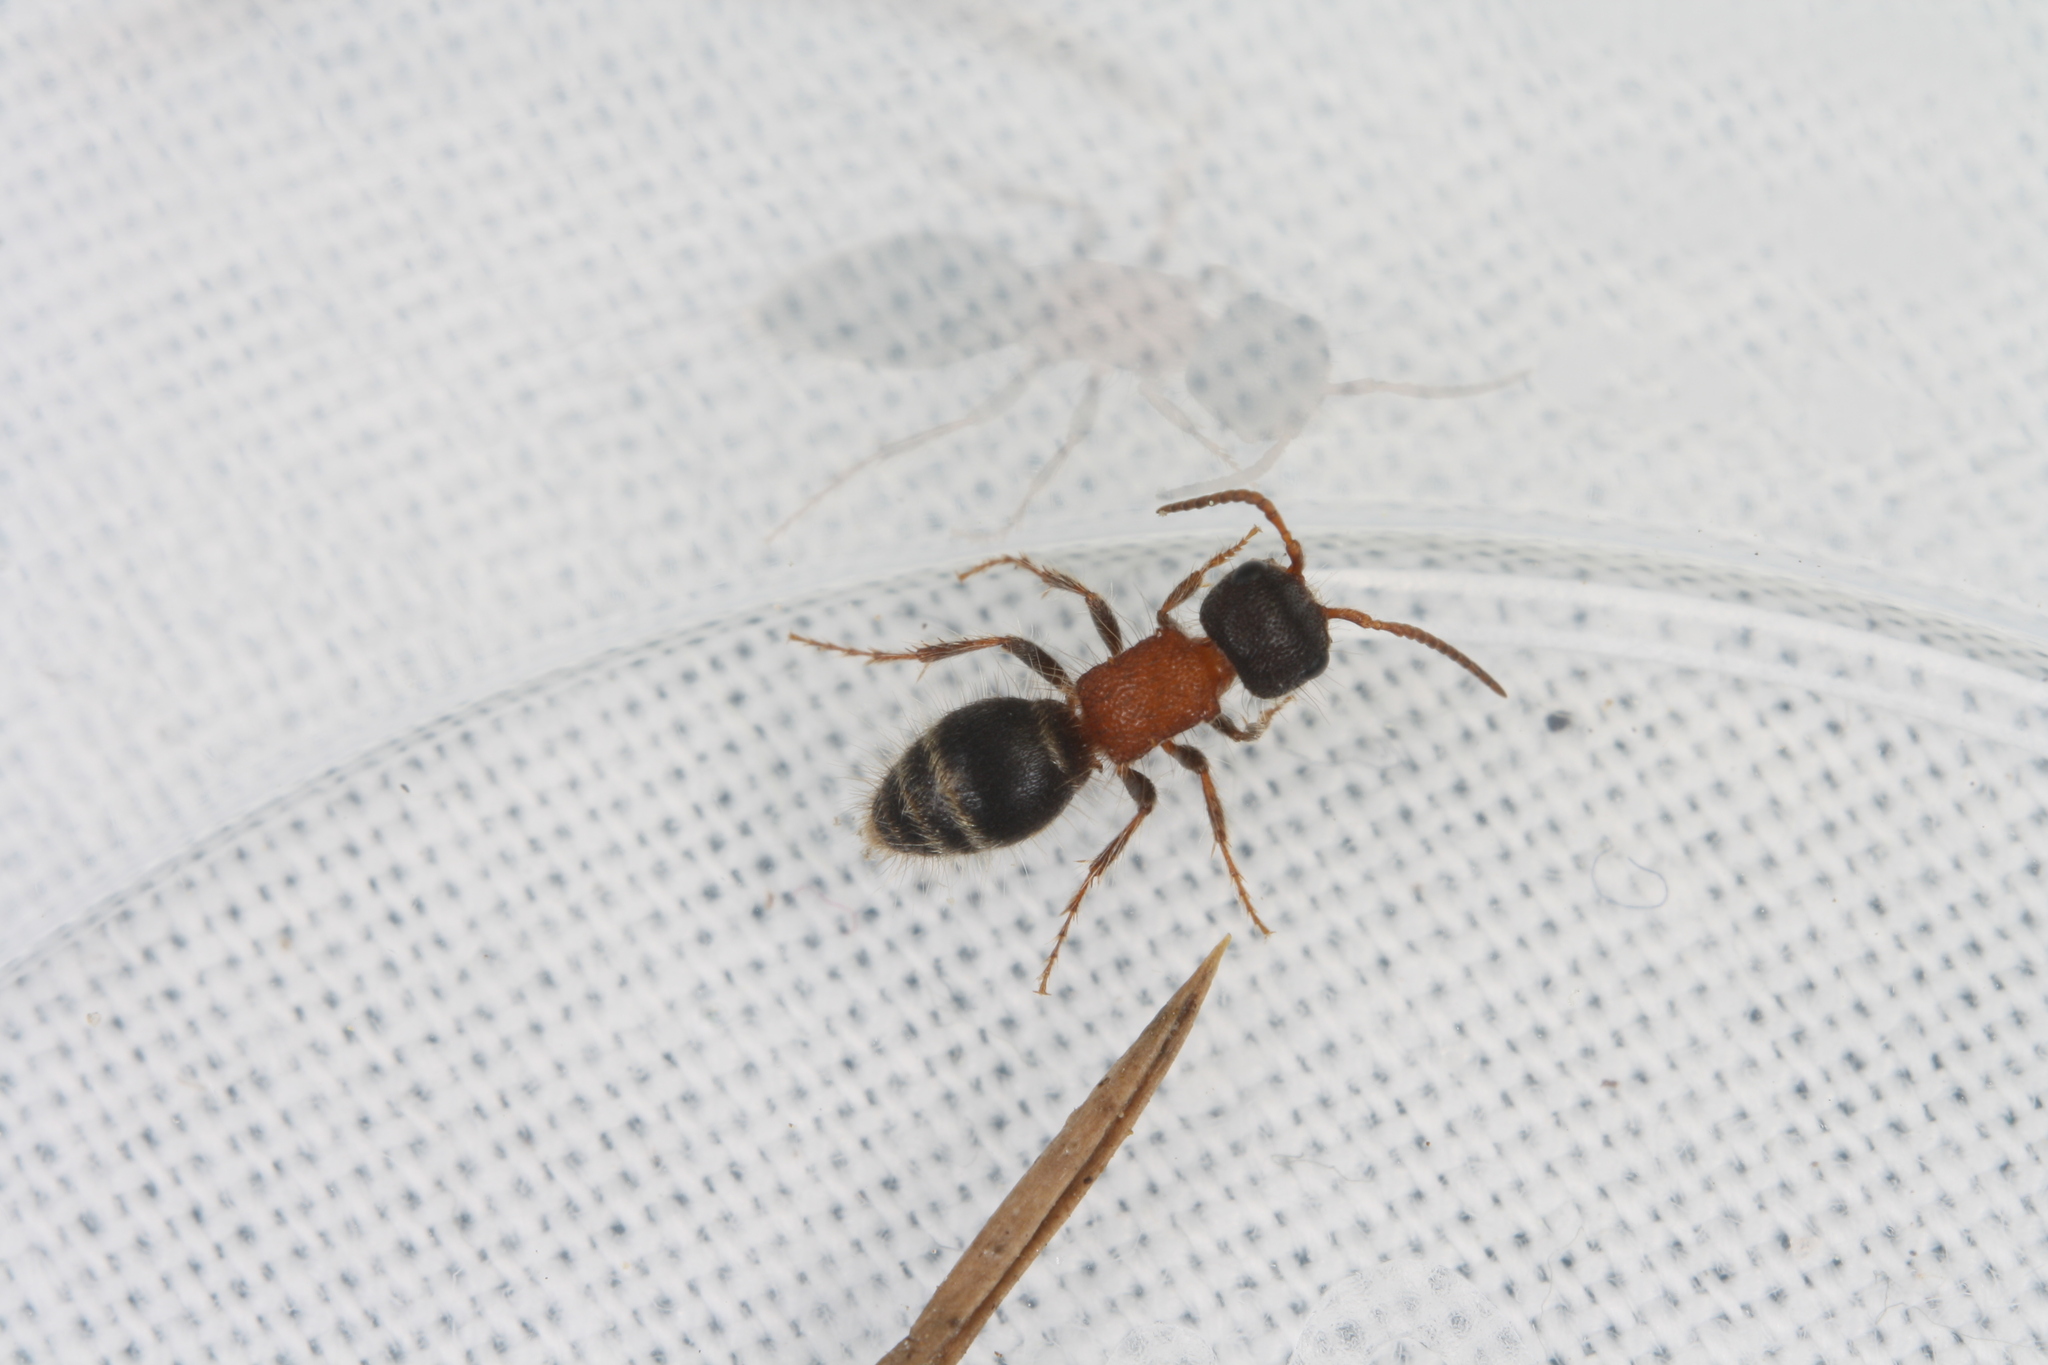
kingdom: Animalia
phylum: Arthropoda
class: Insecta
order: Hymenoptera
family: Mutillidae
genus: Myrmilla
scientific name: Myrmilla calva
